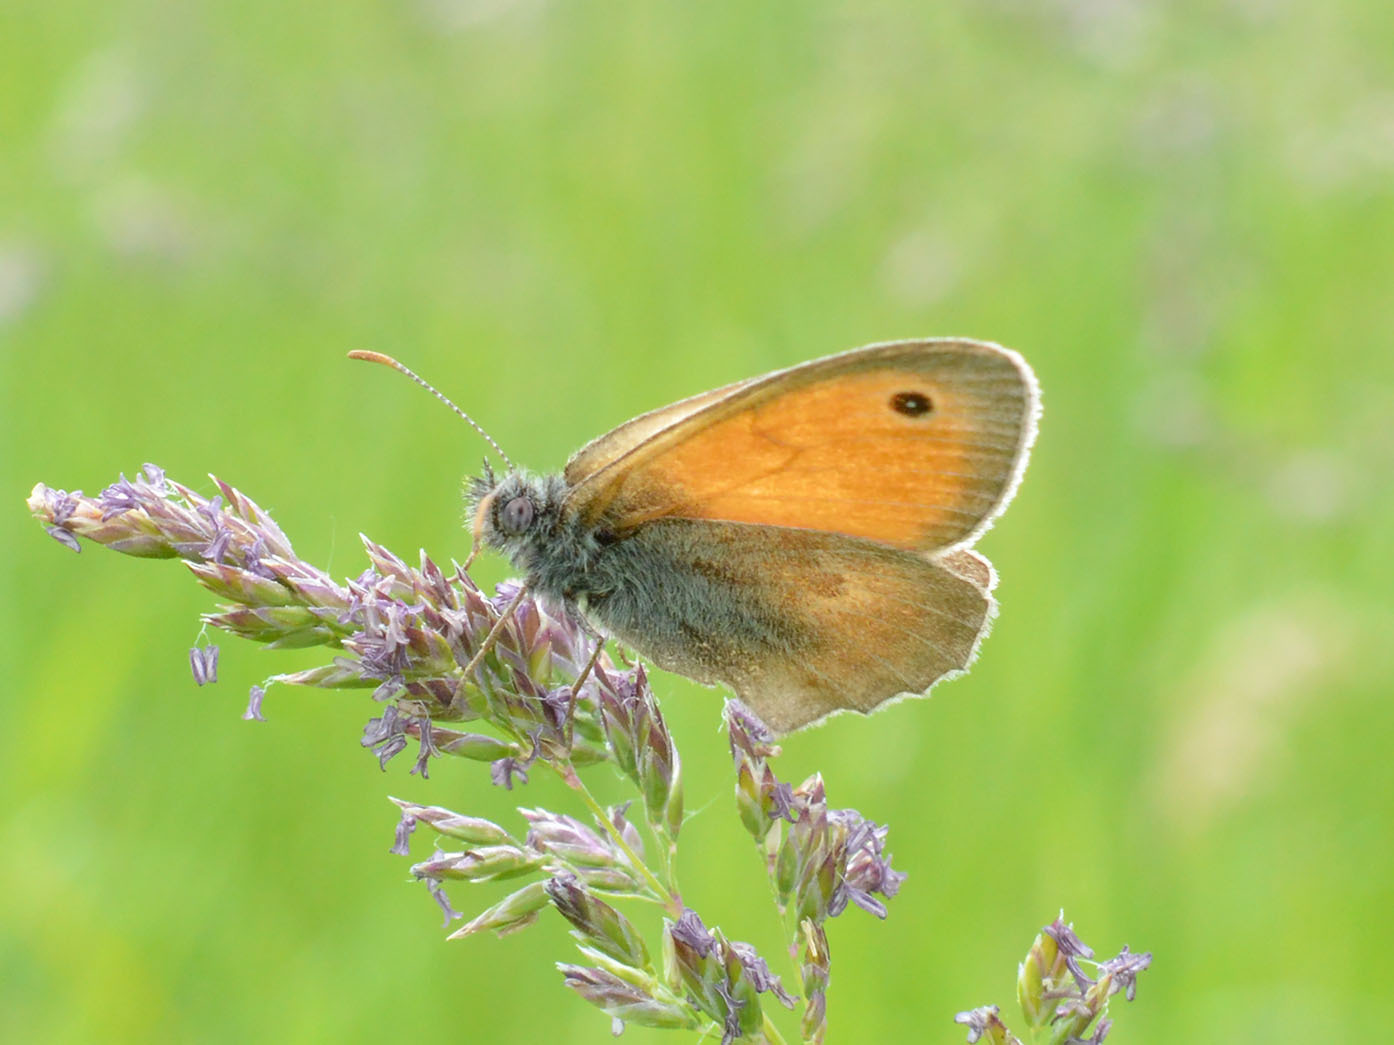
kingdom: Animalia
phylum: Arthropoda
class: Insecta
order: Lepidoptera
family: Nymphalidae
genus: Coenonympha
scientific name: Coenonympha pamphilus
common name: Small heath
